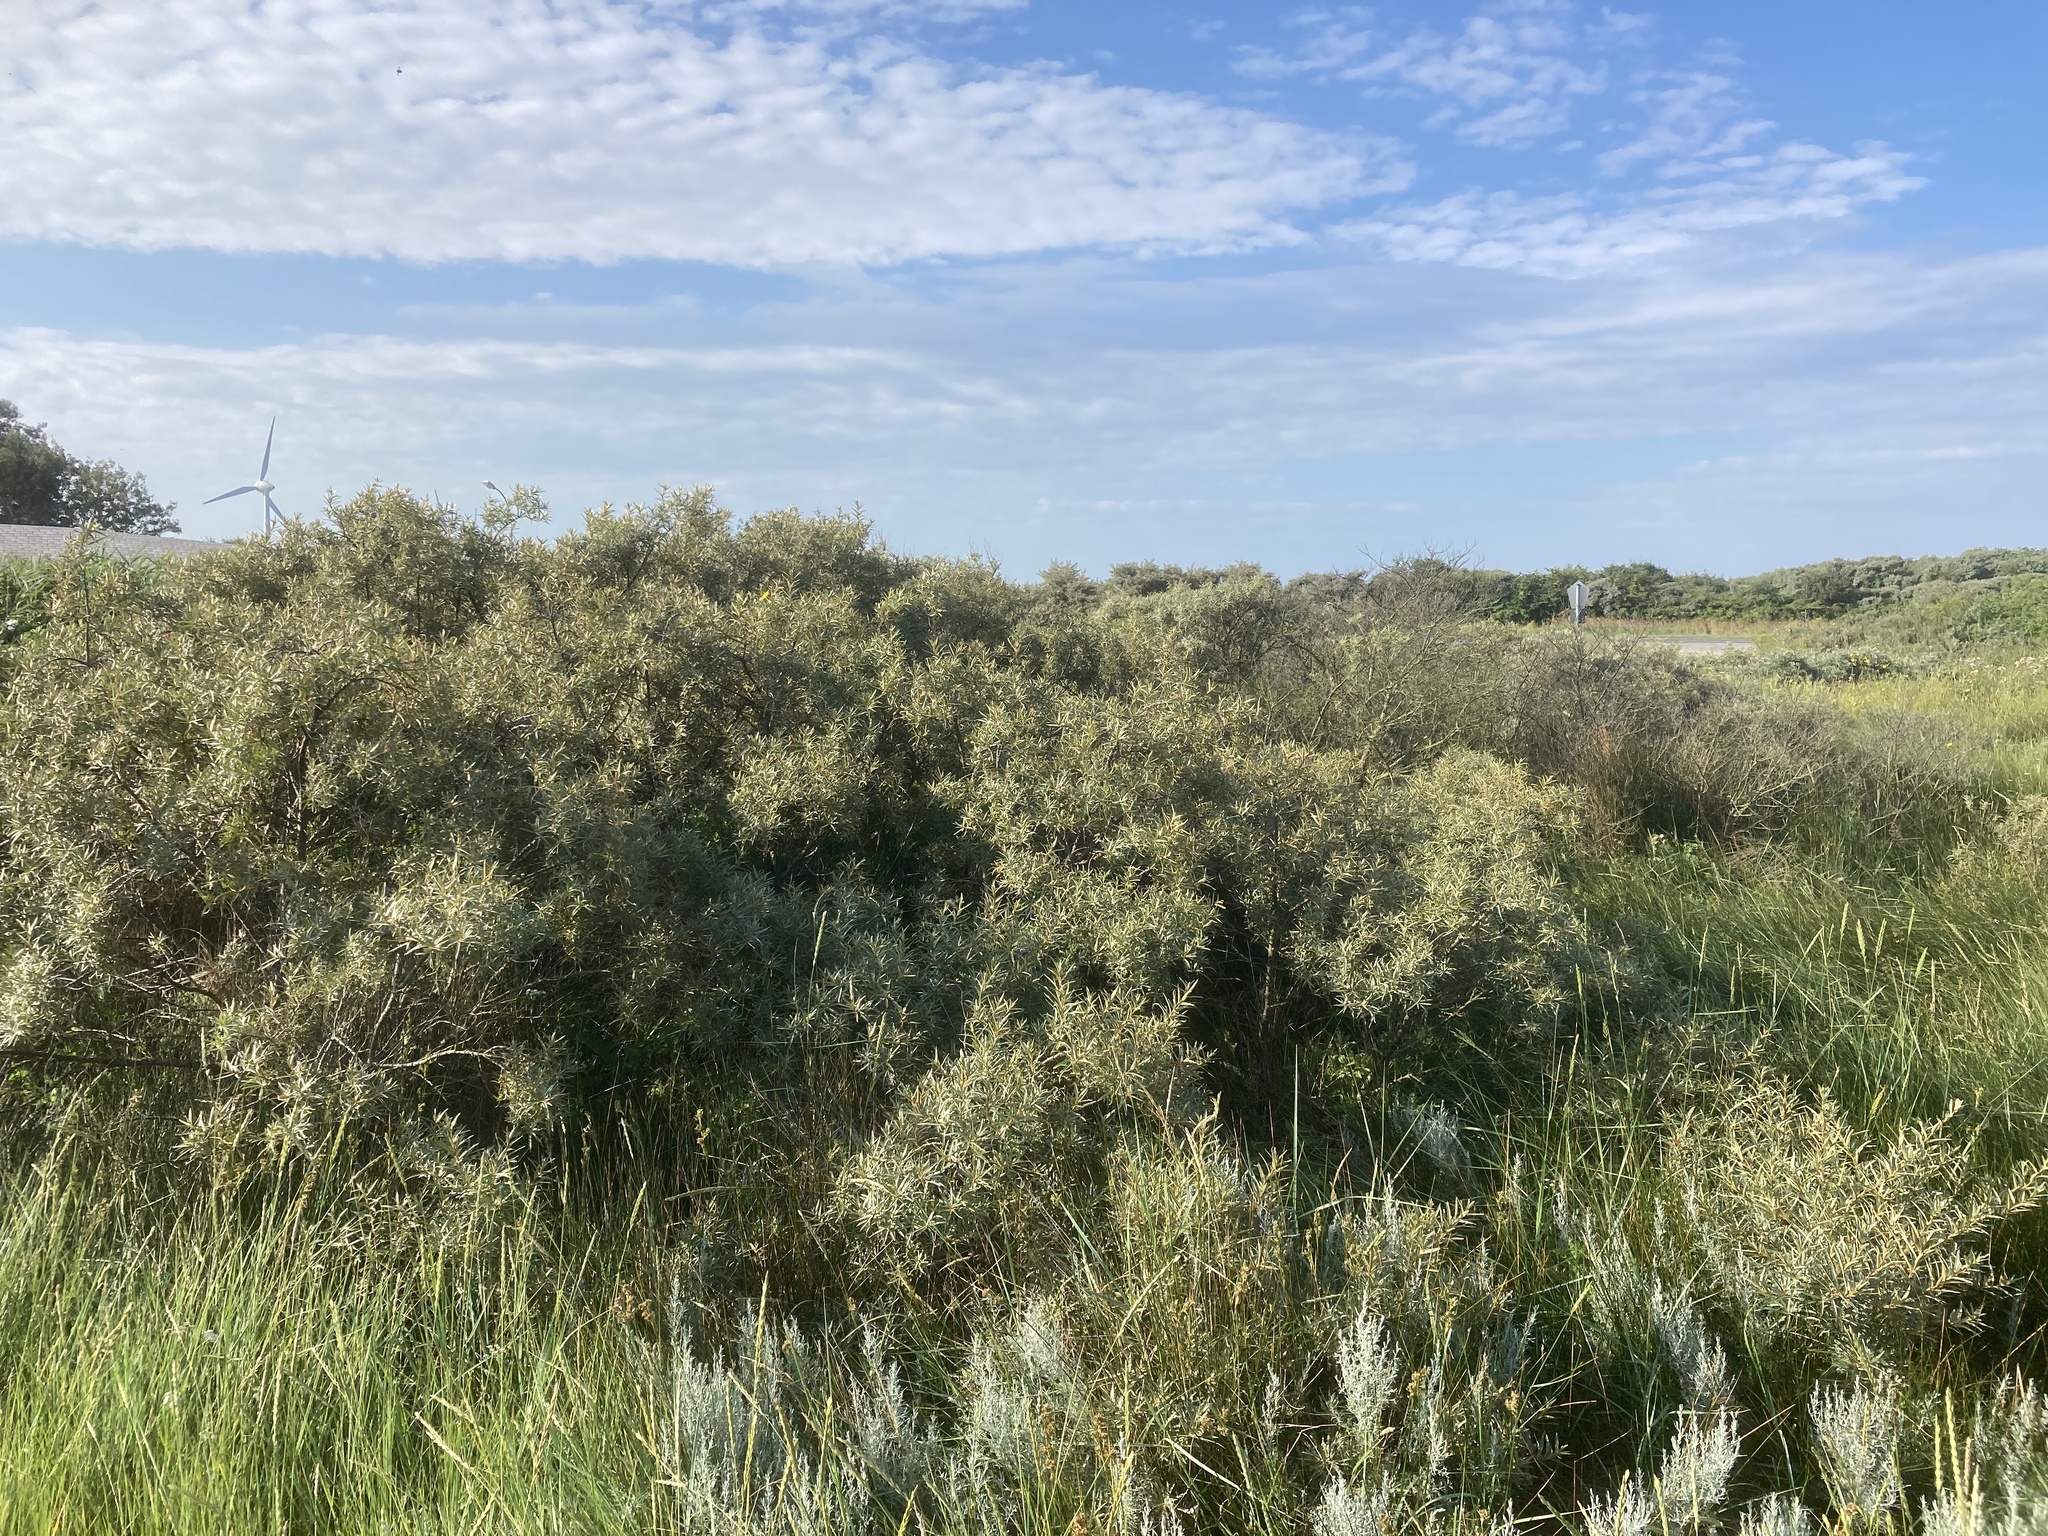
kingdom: Plantae
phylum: Tracheophyta
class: Magnoliopsida
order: Rosales
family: Elaeagnaceae
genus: Hippophae
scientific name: Hippophae rhamnoides
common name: Sea-buckthorn
